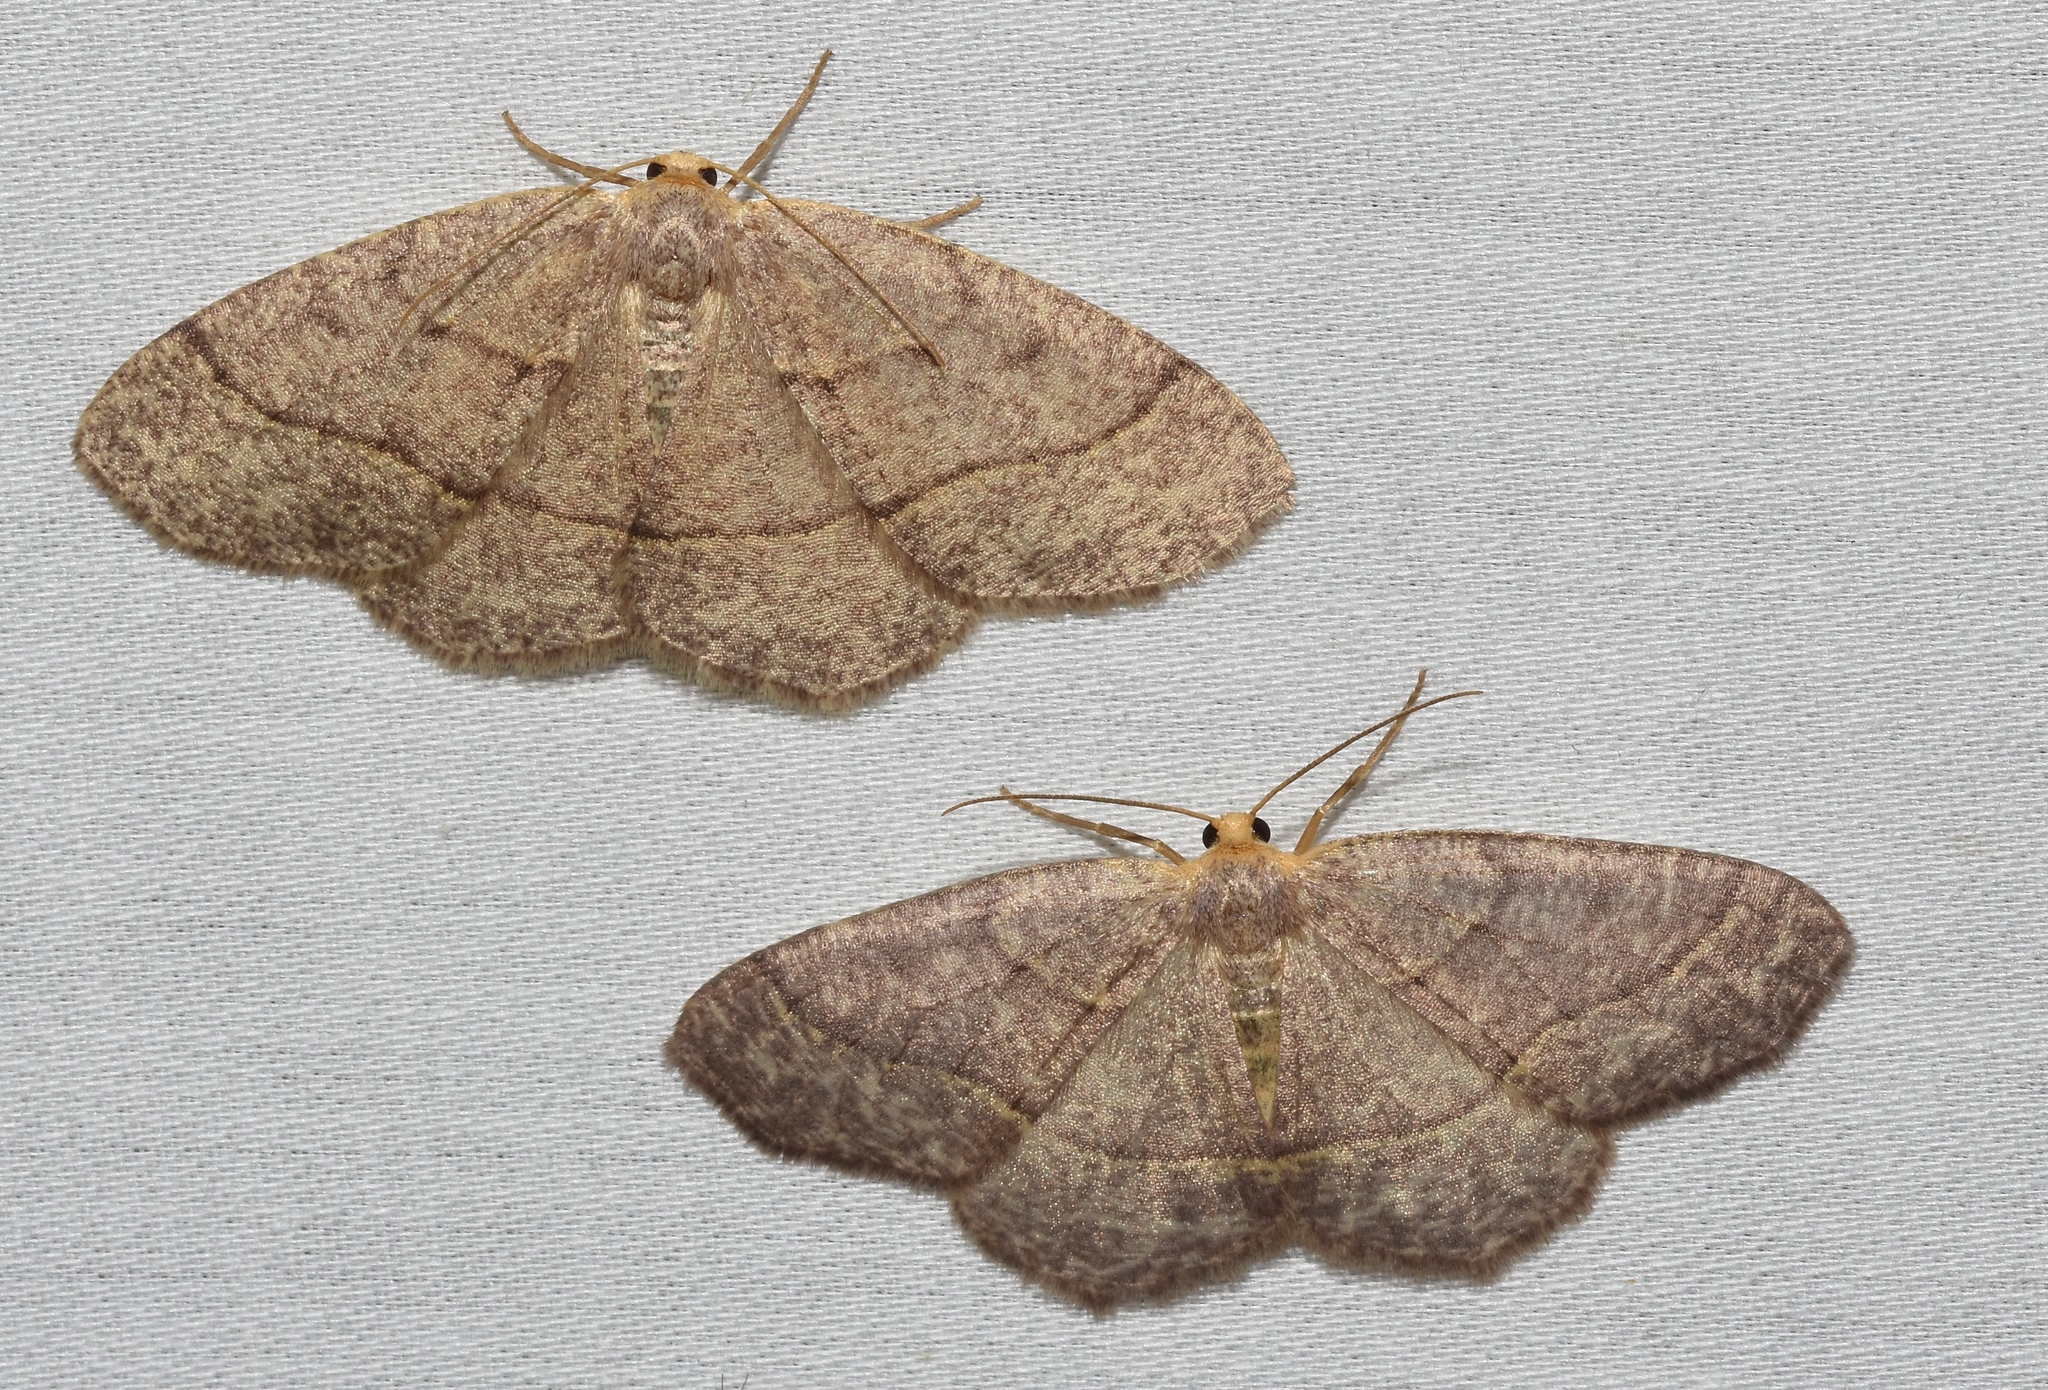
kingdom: Animalia
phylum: Arthropoda
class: Insecta
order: Lepidoptera
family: Geometridae
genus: Lambdina
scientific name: Lambdina fervidaria
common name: Curve-lined looper moth
